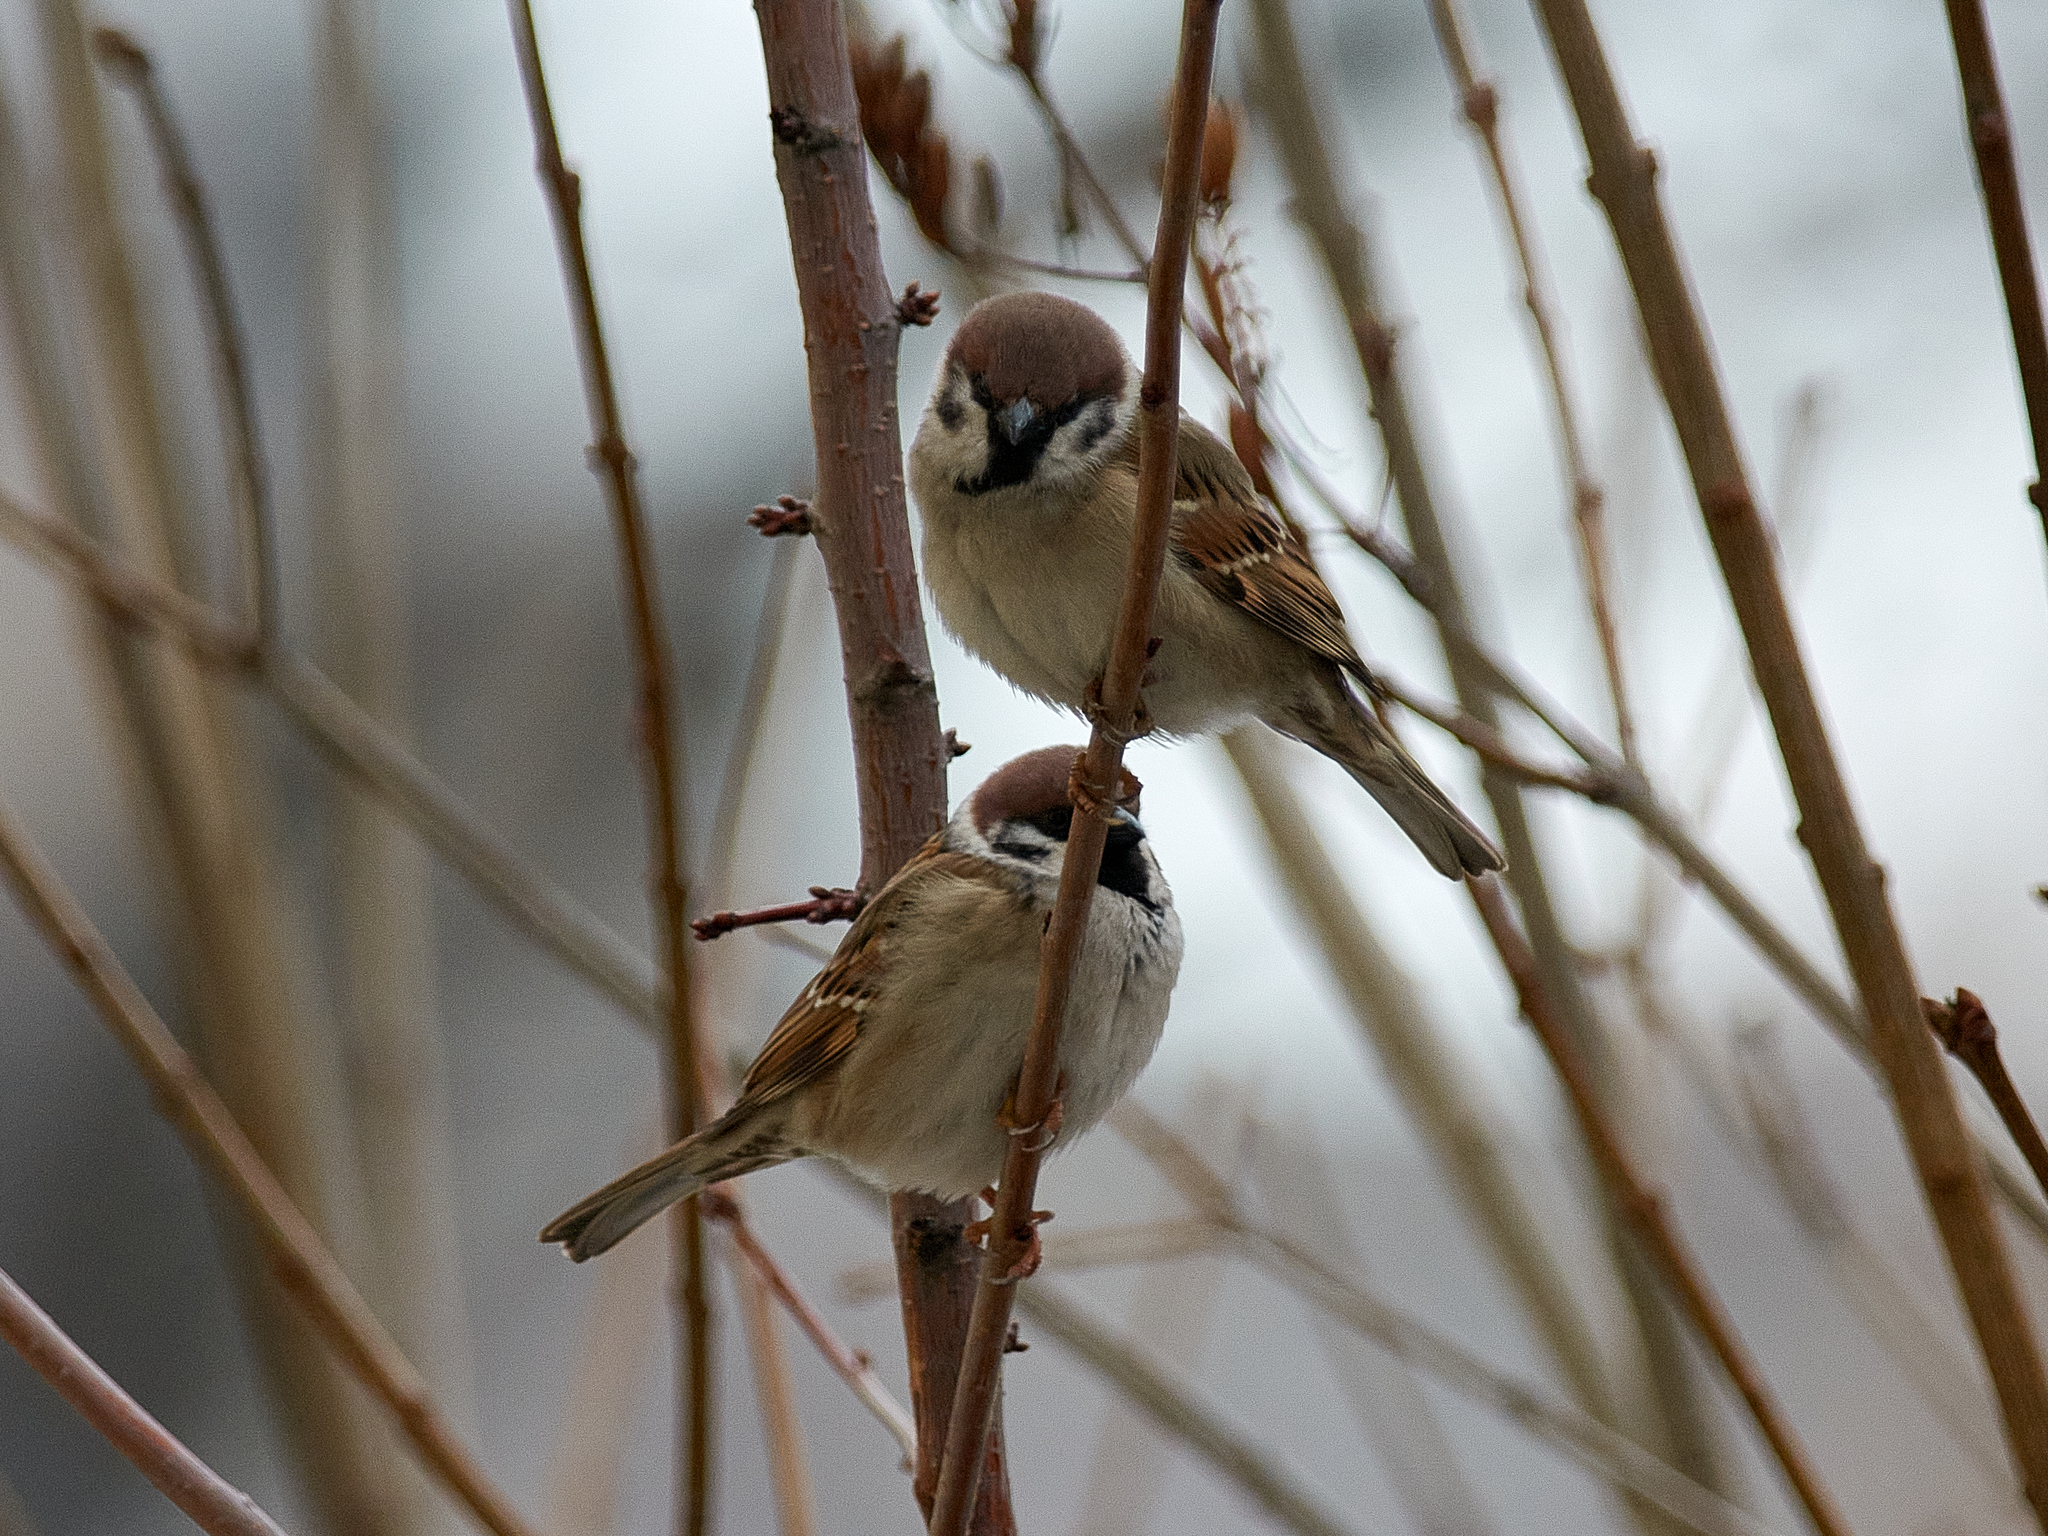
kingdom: Animalia
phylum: Chordata
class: Aves
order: Passeriformes
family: Passeridae
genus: Passer
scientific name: Passer montanus
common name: Eurasian tree sparrow
